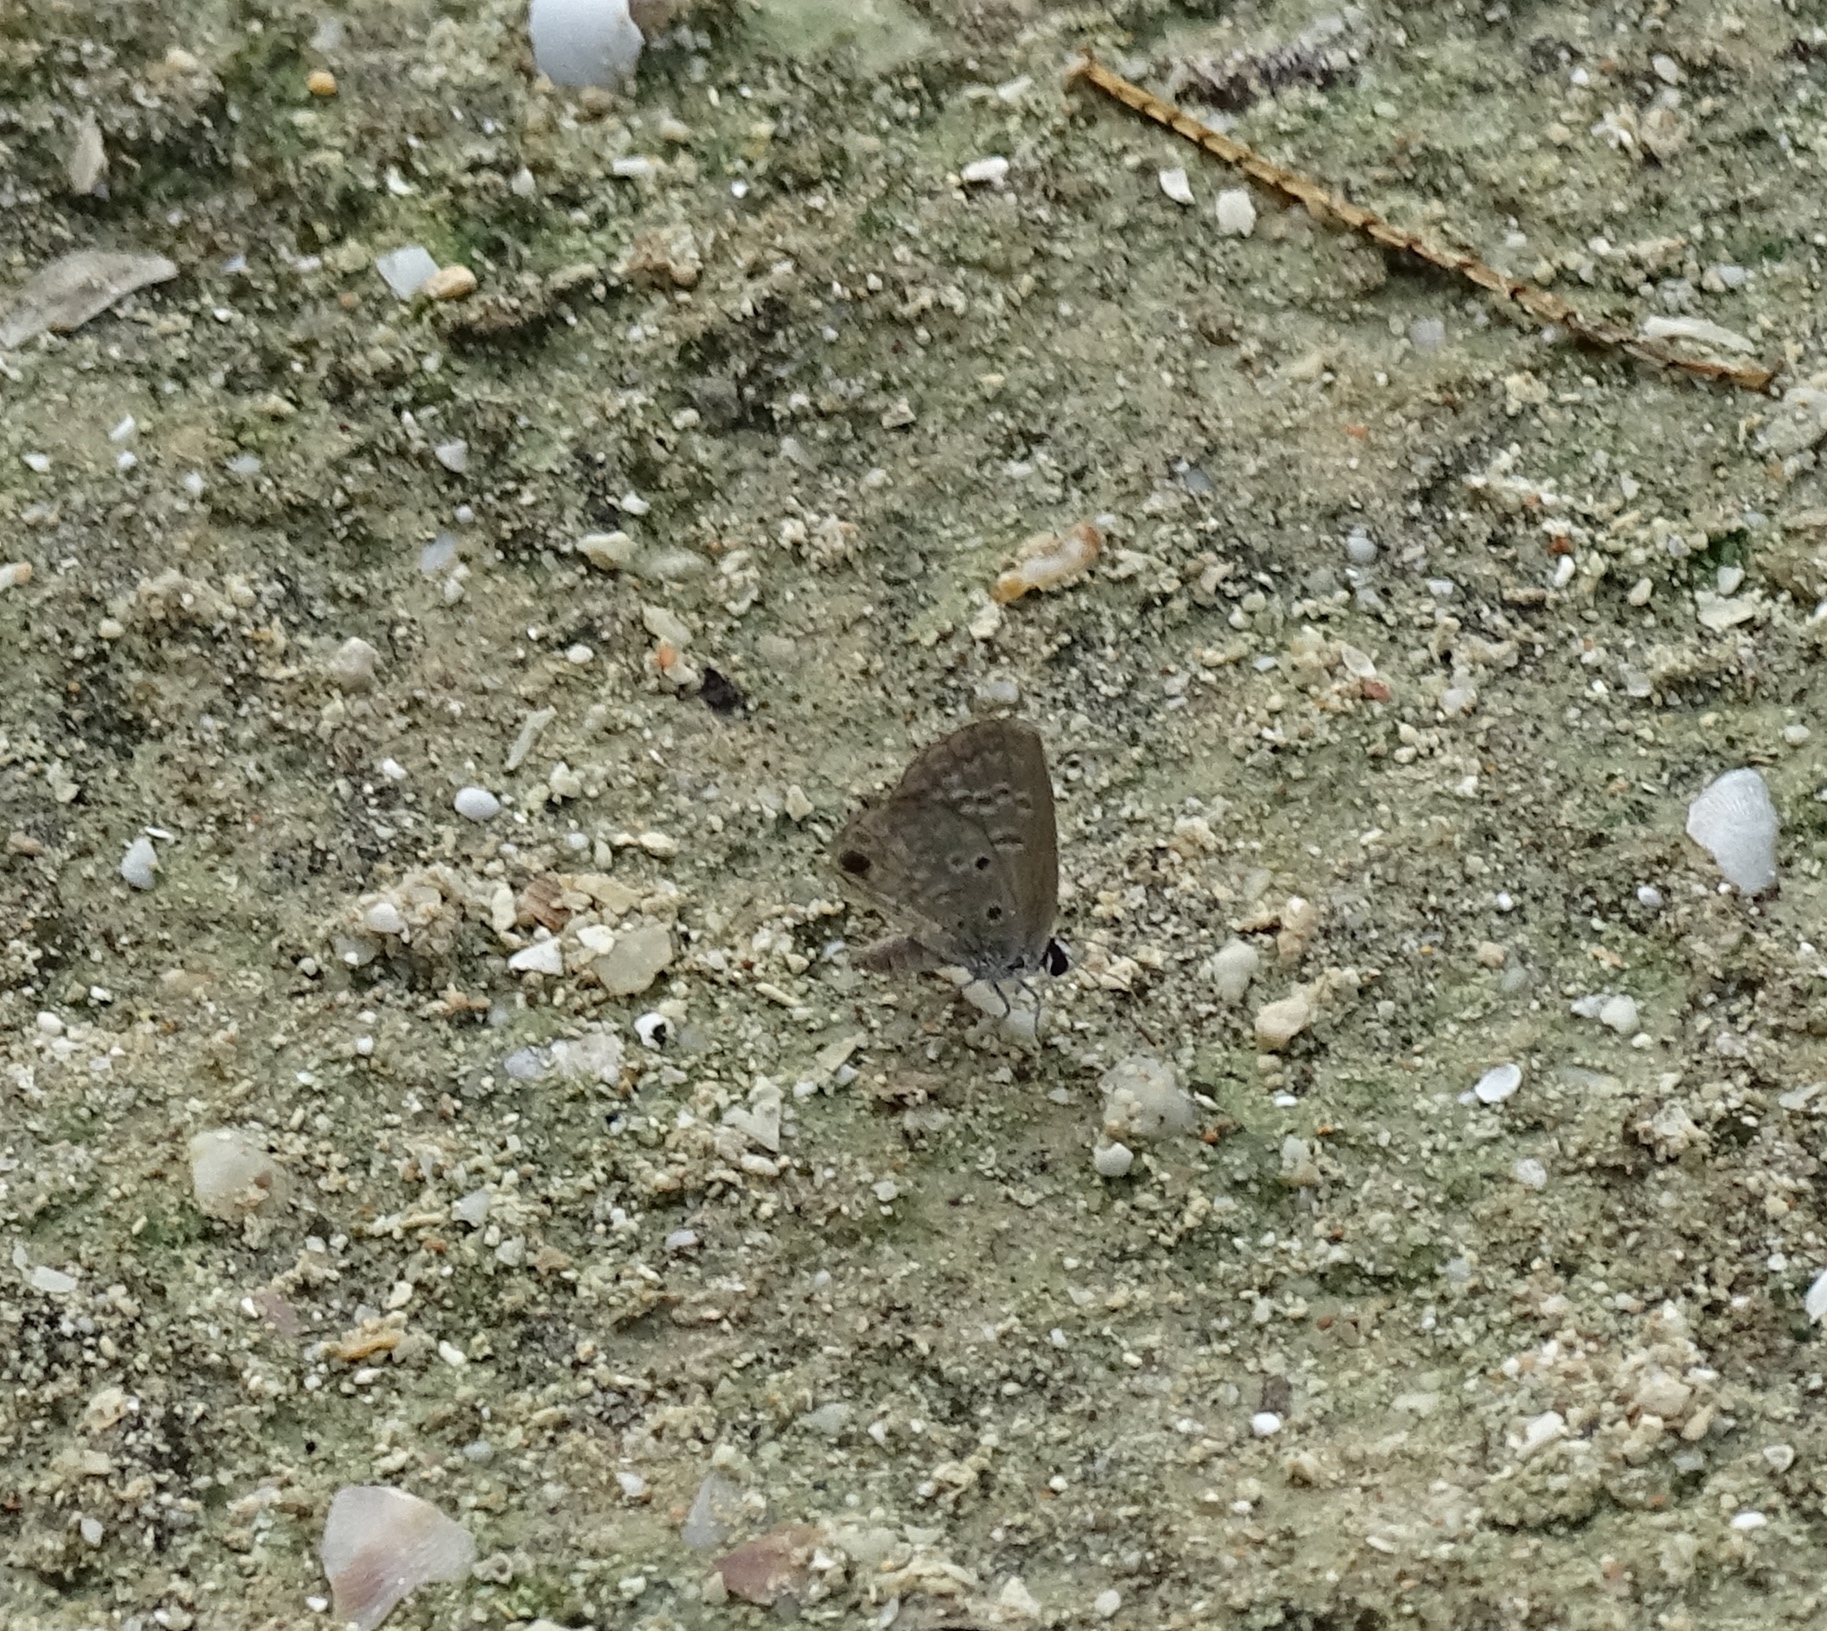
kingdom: Animalia
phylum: Arthropoda
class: Insecta
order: Lepidoptera
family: Lycaenidae
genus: Hemiargus
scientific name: Hemiargus ceraunus
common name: Ceraunus blue
